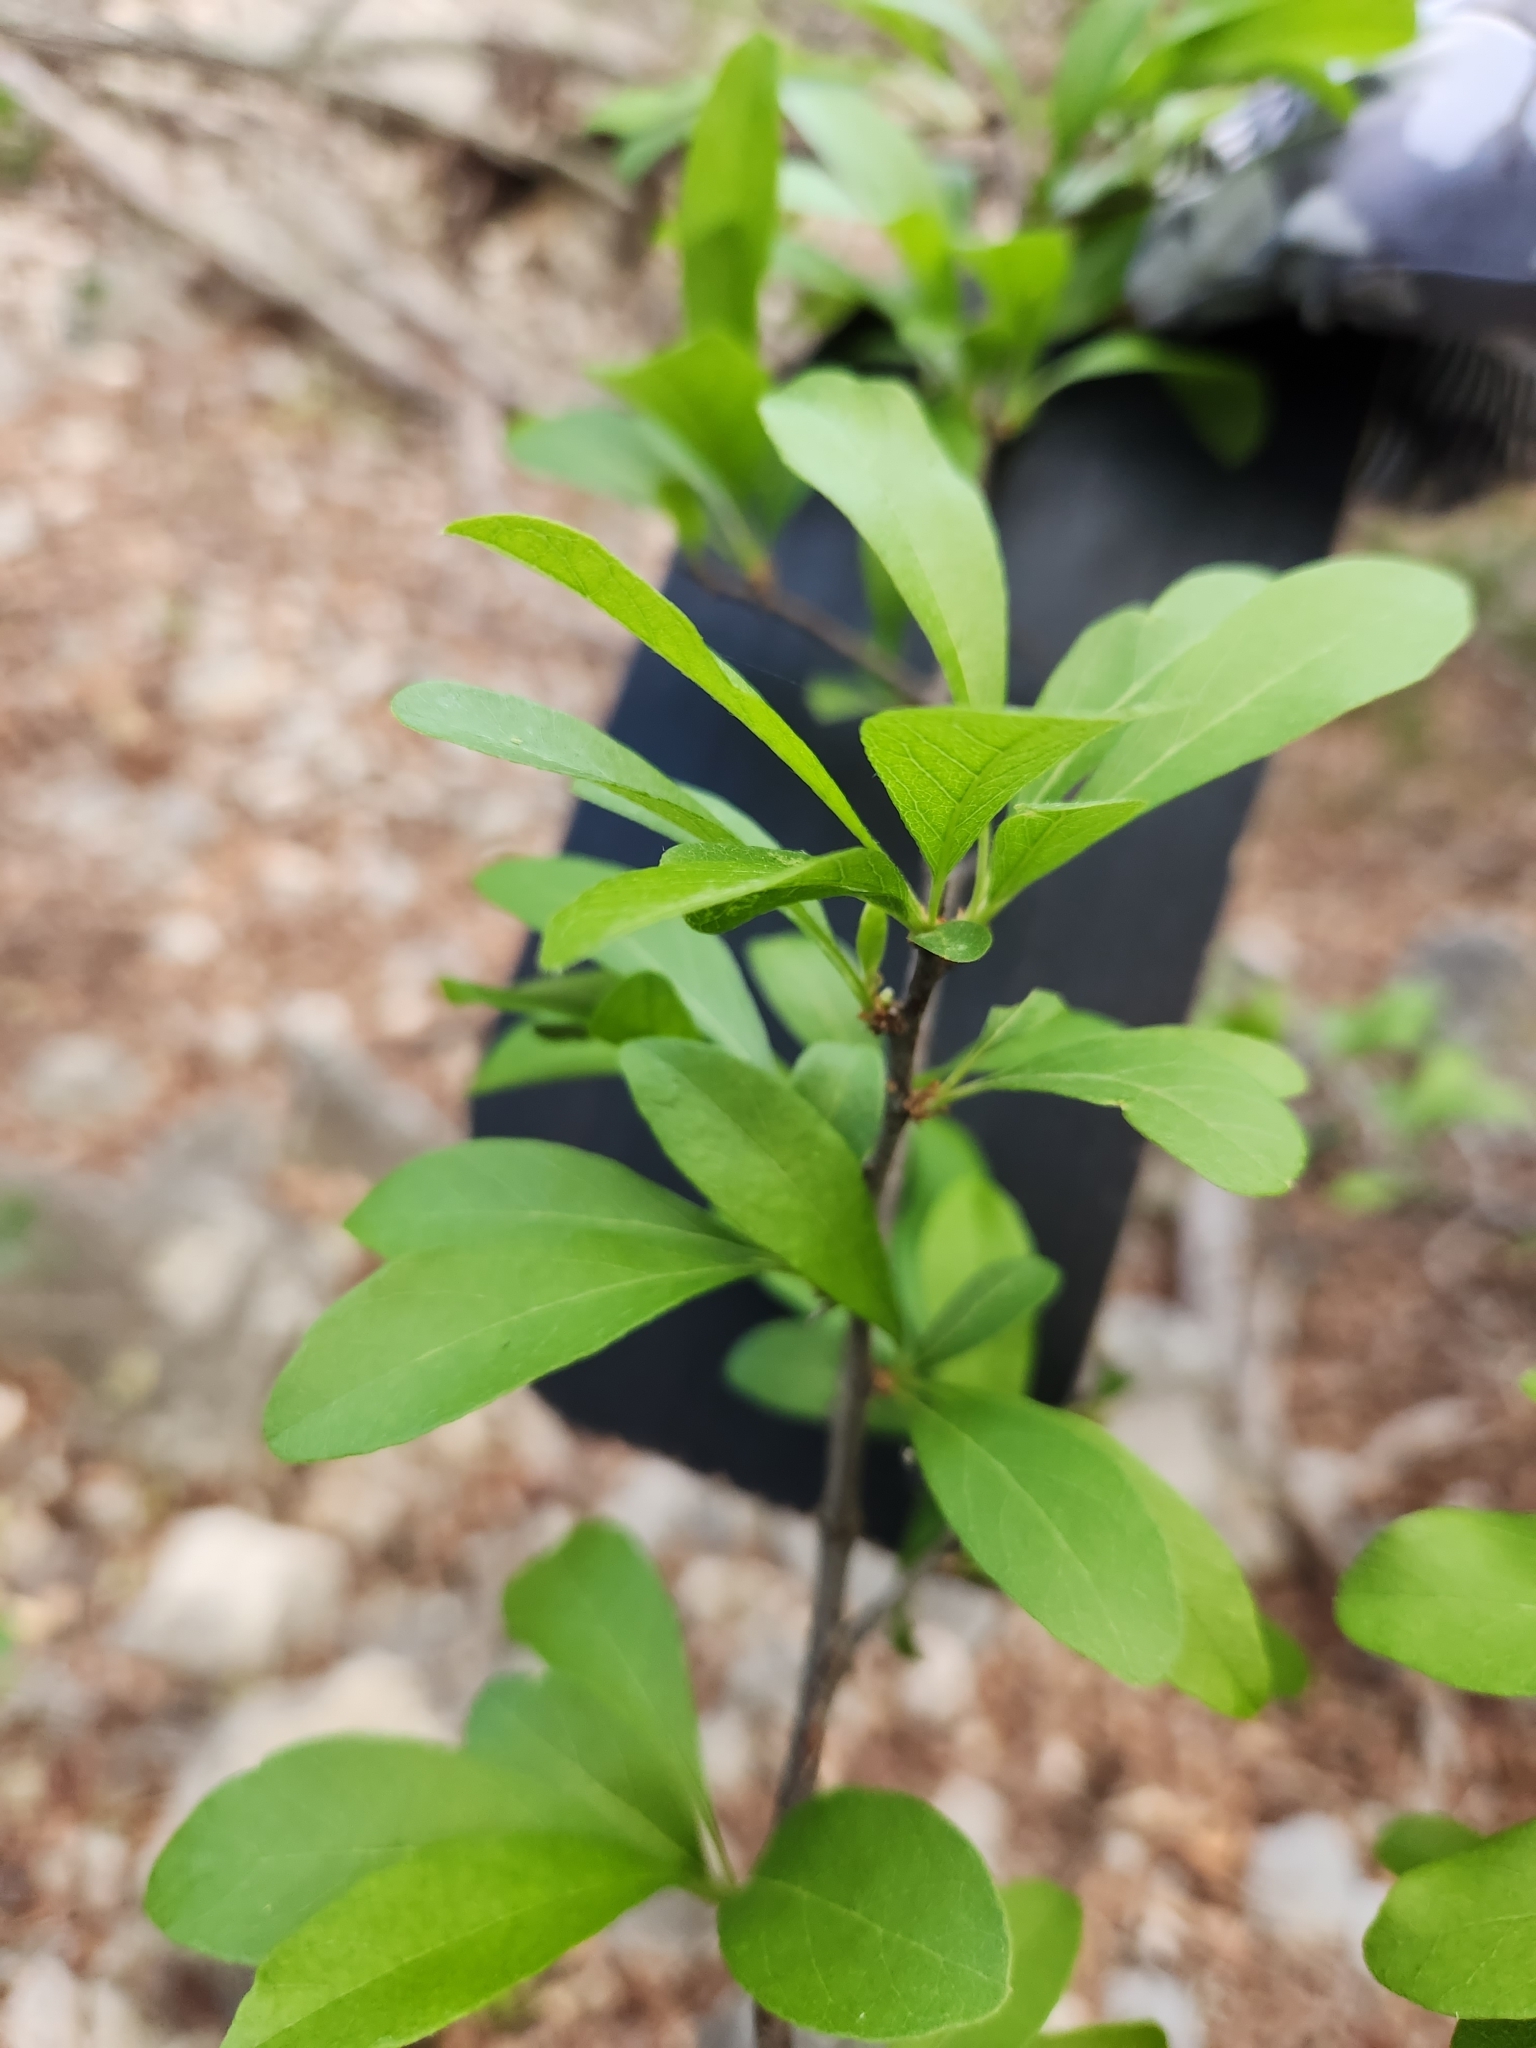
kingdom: Plantae
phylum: Tracheophyta
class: Magnoliopsida
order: Ericales
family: Sapotaceae
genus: Sideroxylon
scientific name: Sideroxylon lanuginosum
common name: Chittamwood
